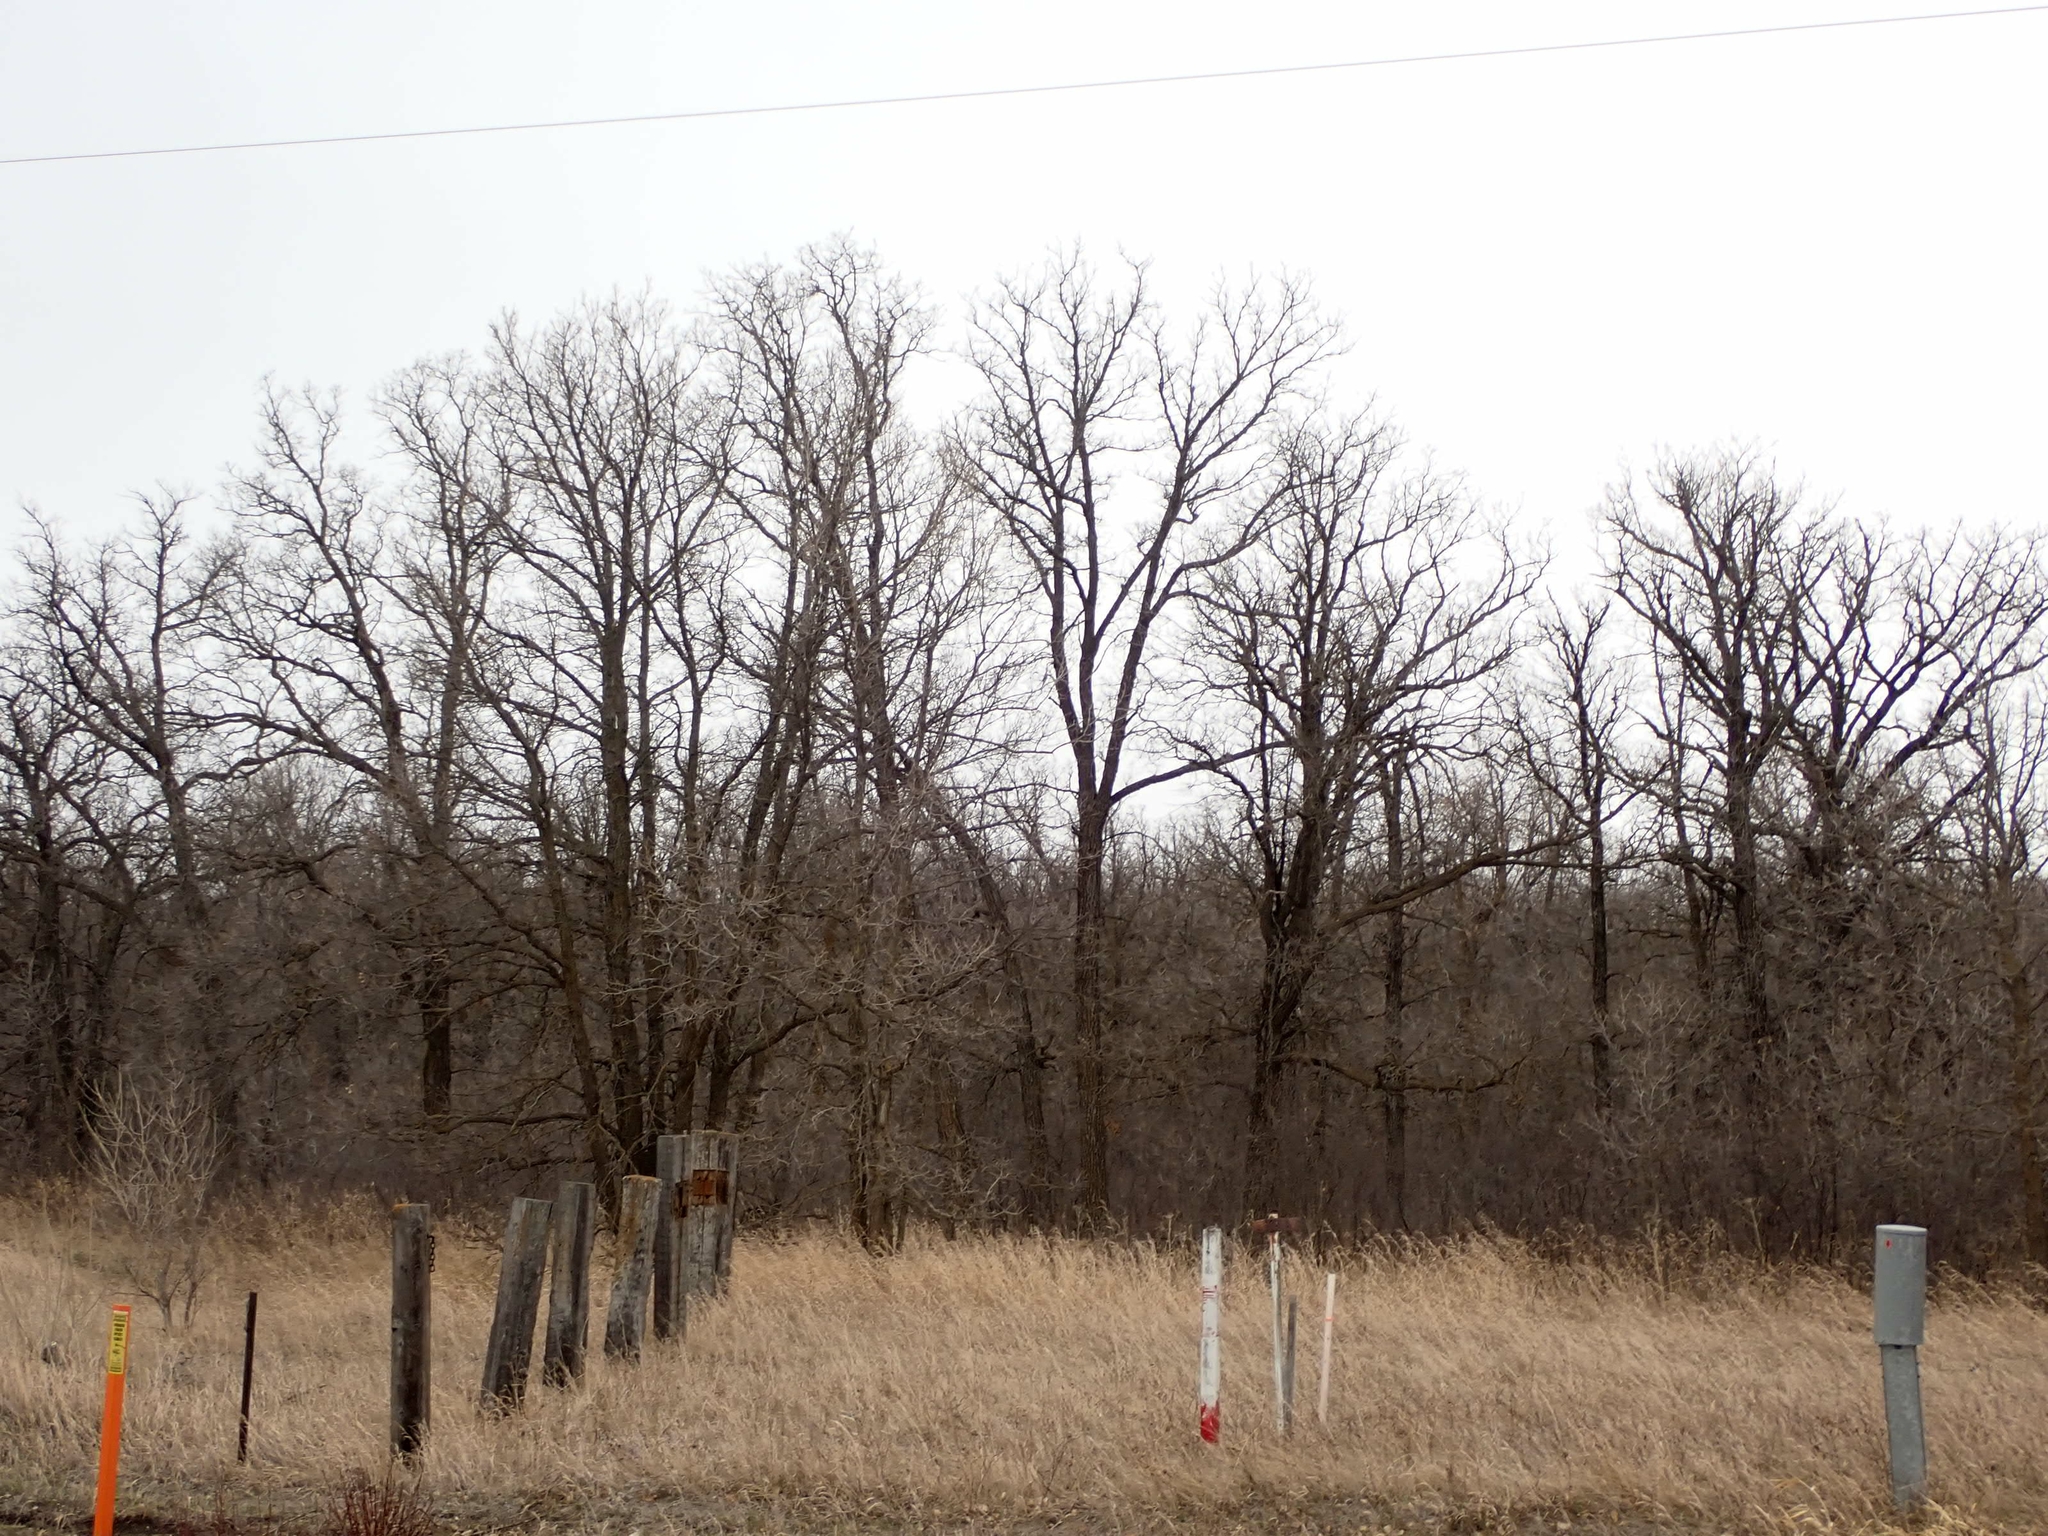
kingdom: Plantae
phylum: Tracheophyta
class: Magnoliopsida
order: Fagales
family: Fagaceae
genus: Quercus
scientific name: Quercus macrocarpa
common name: Bur oak
